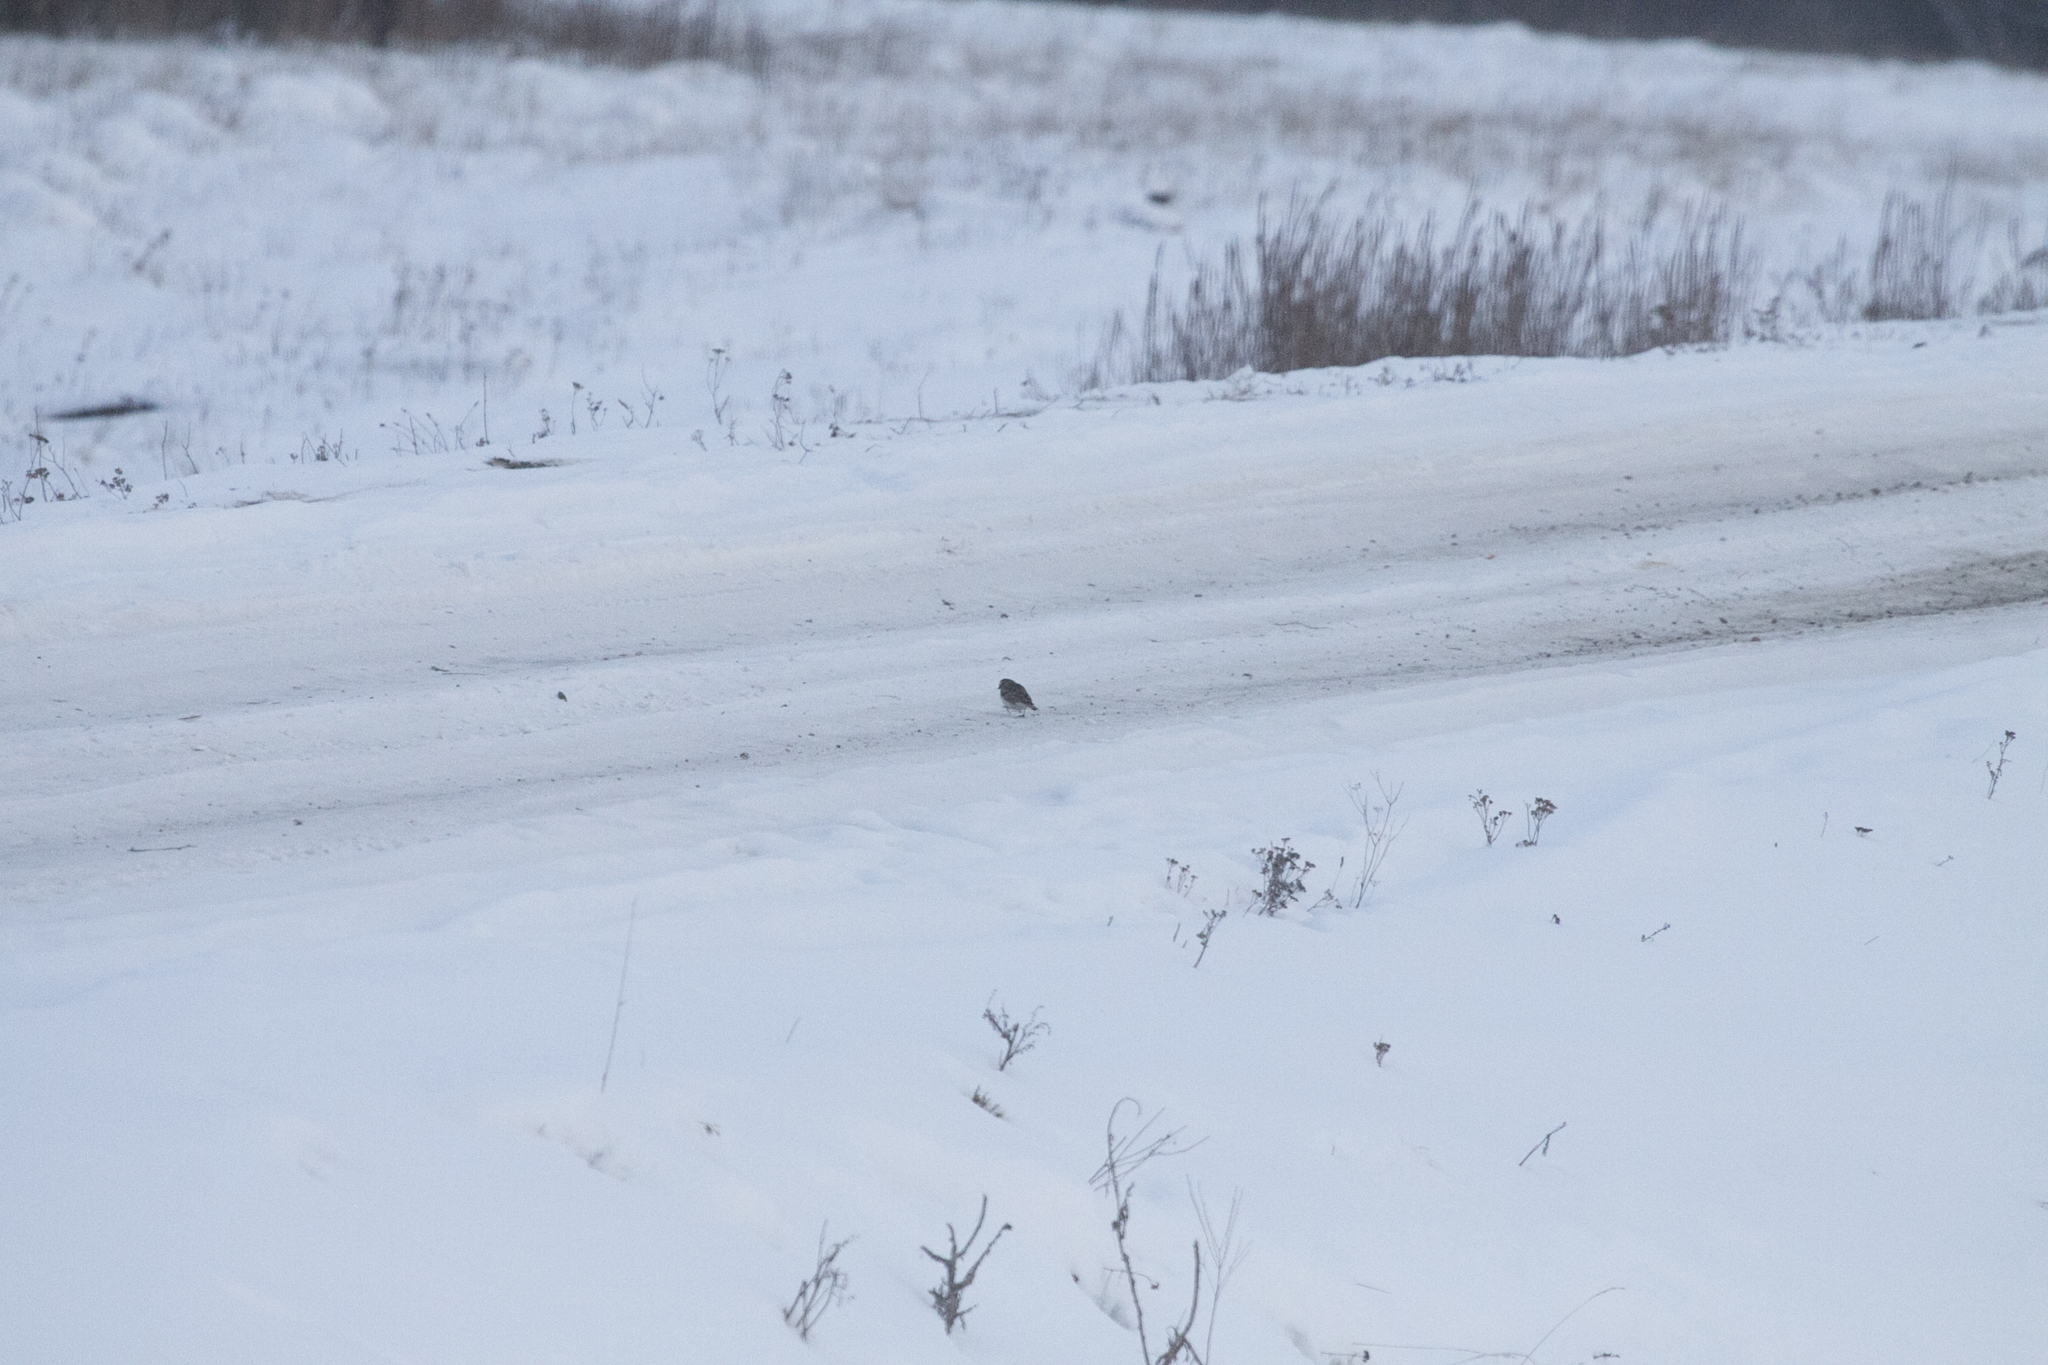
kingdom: Animalia
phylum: Chordata
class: Aves
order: Passeriformes
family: Alaudidae
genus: Eremophila
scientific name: Eremophila alpestris
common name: Horned lark
